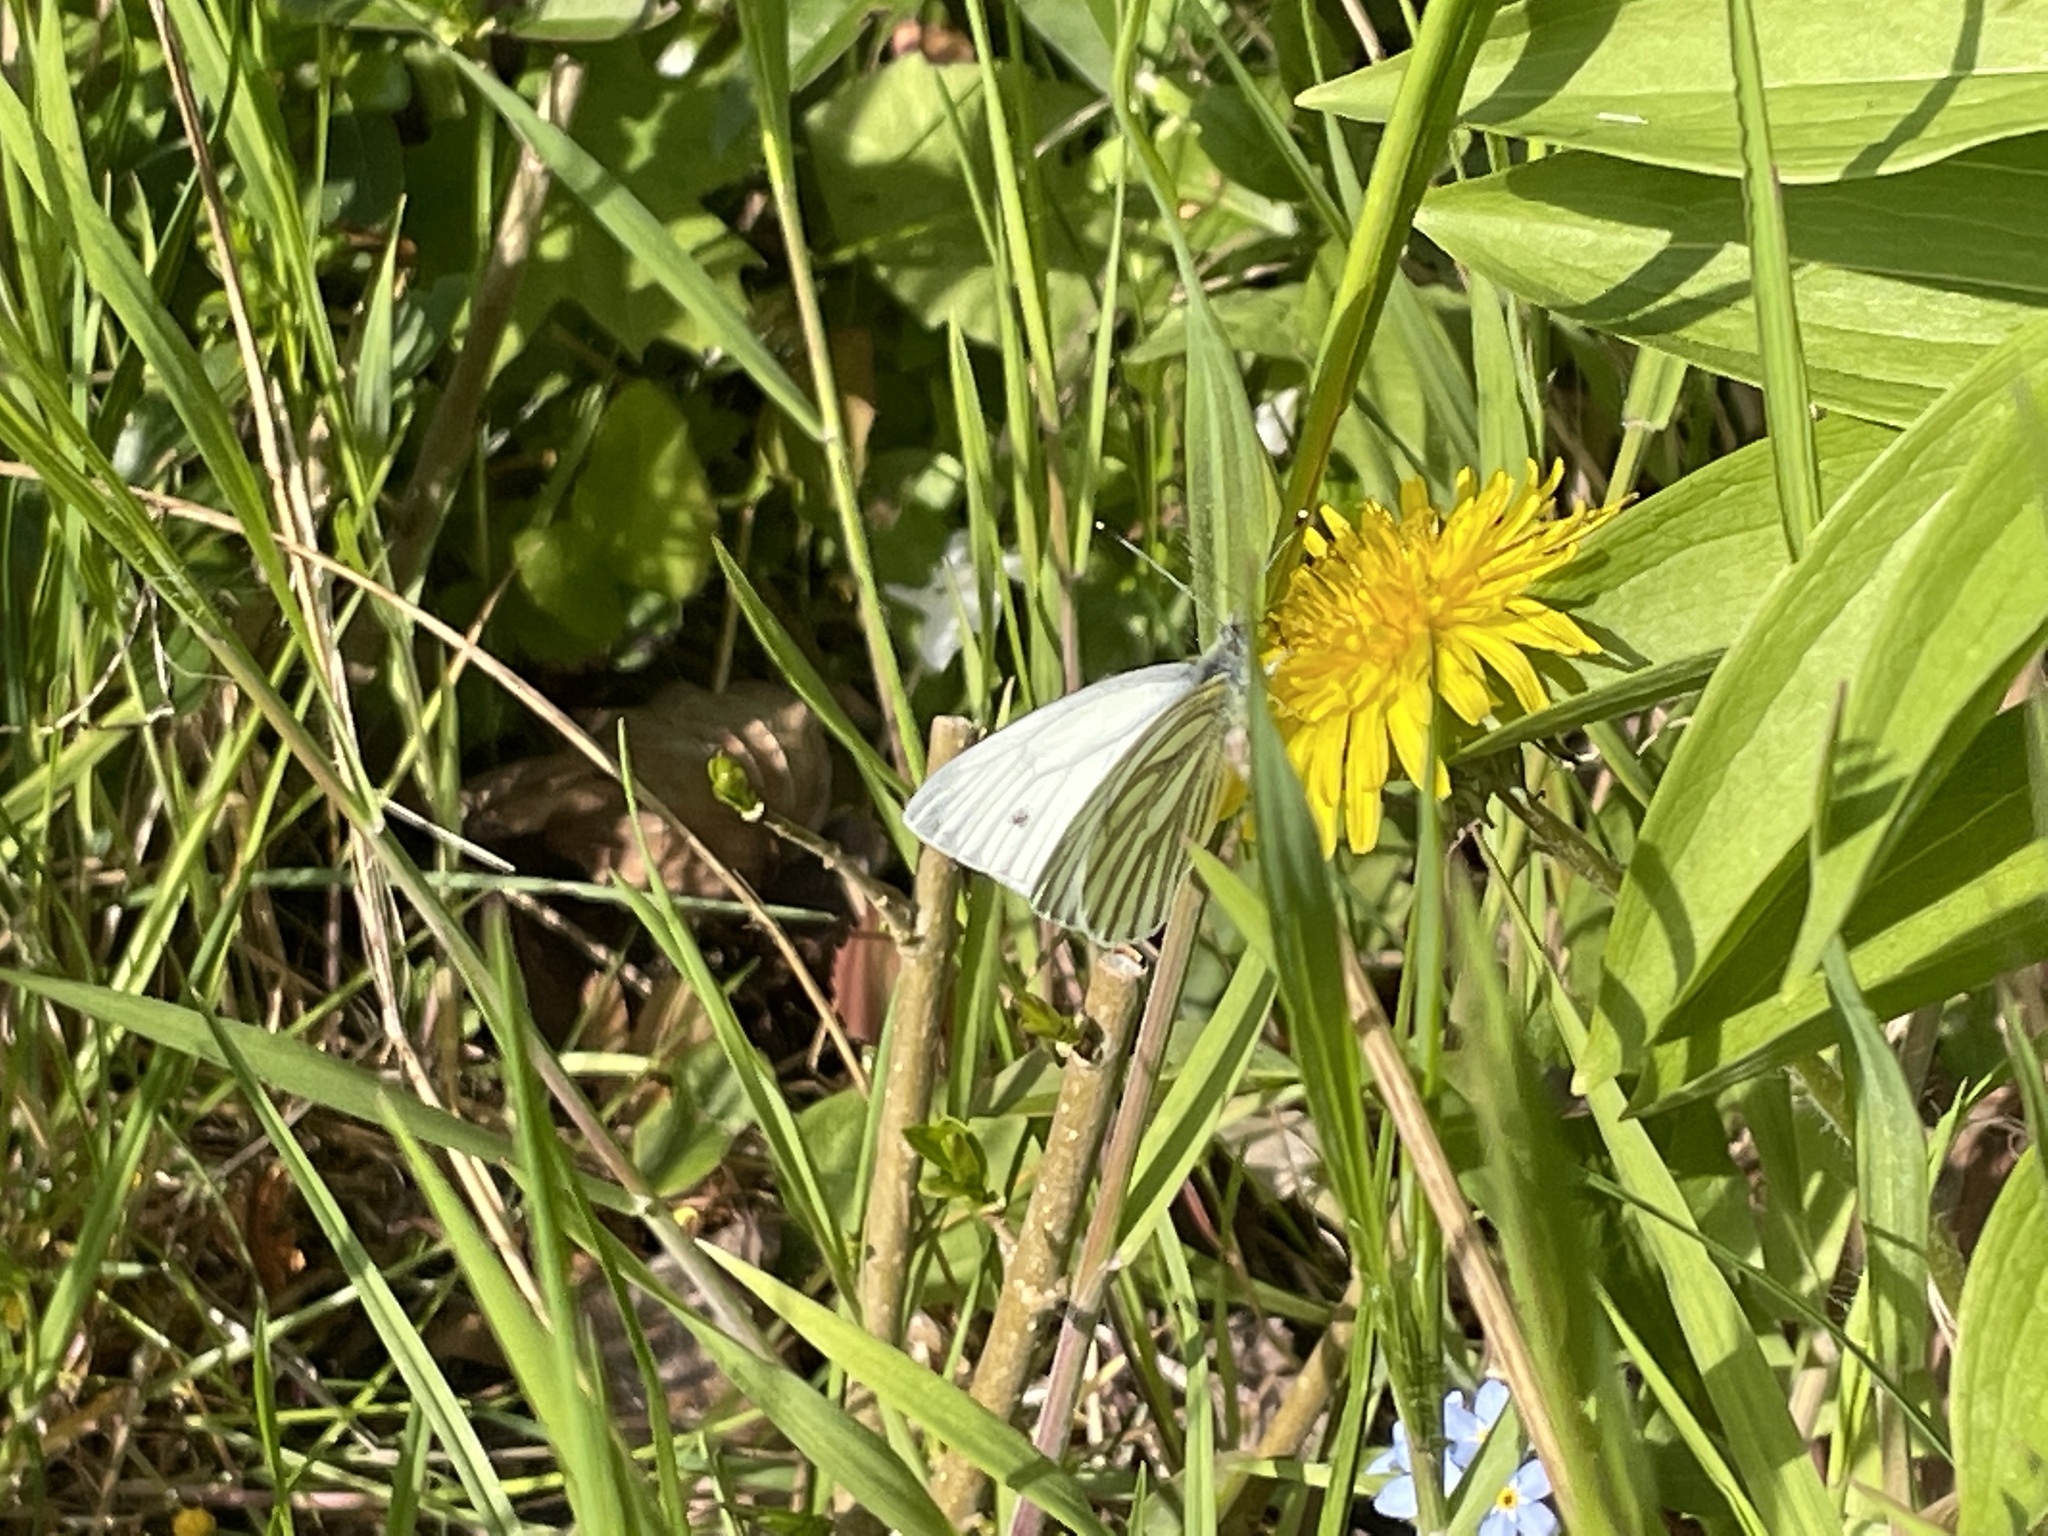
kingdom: Animalia
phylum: Arthropoda
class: Insecta
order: Lepidoptera
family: Pieridae
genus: Pieris
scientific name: Pieris napi
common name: Green-veined white
